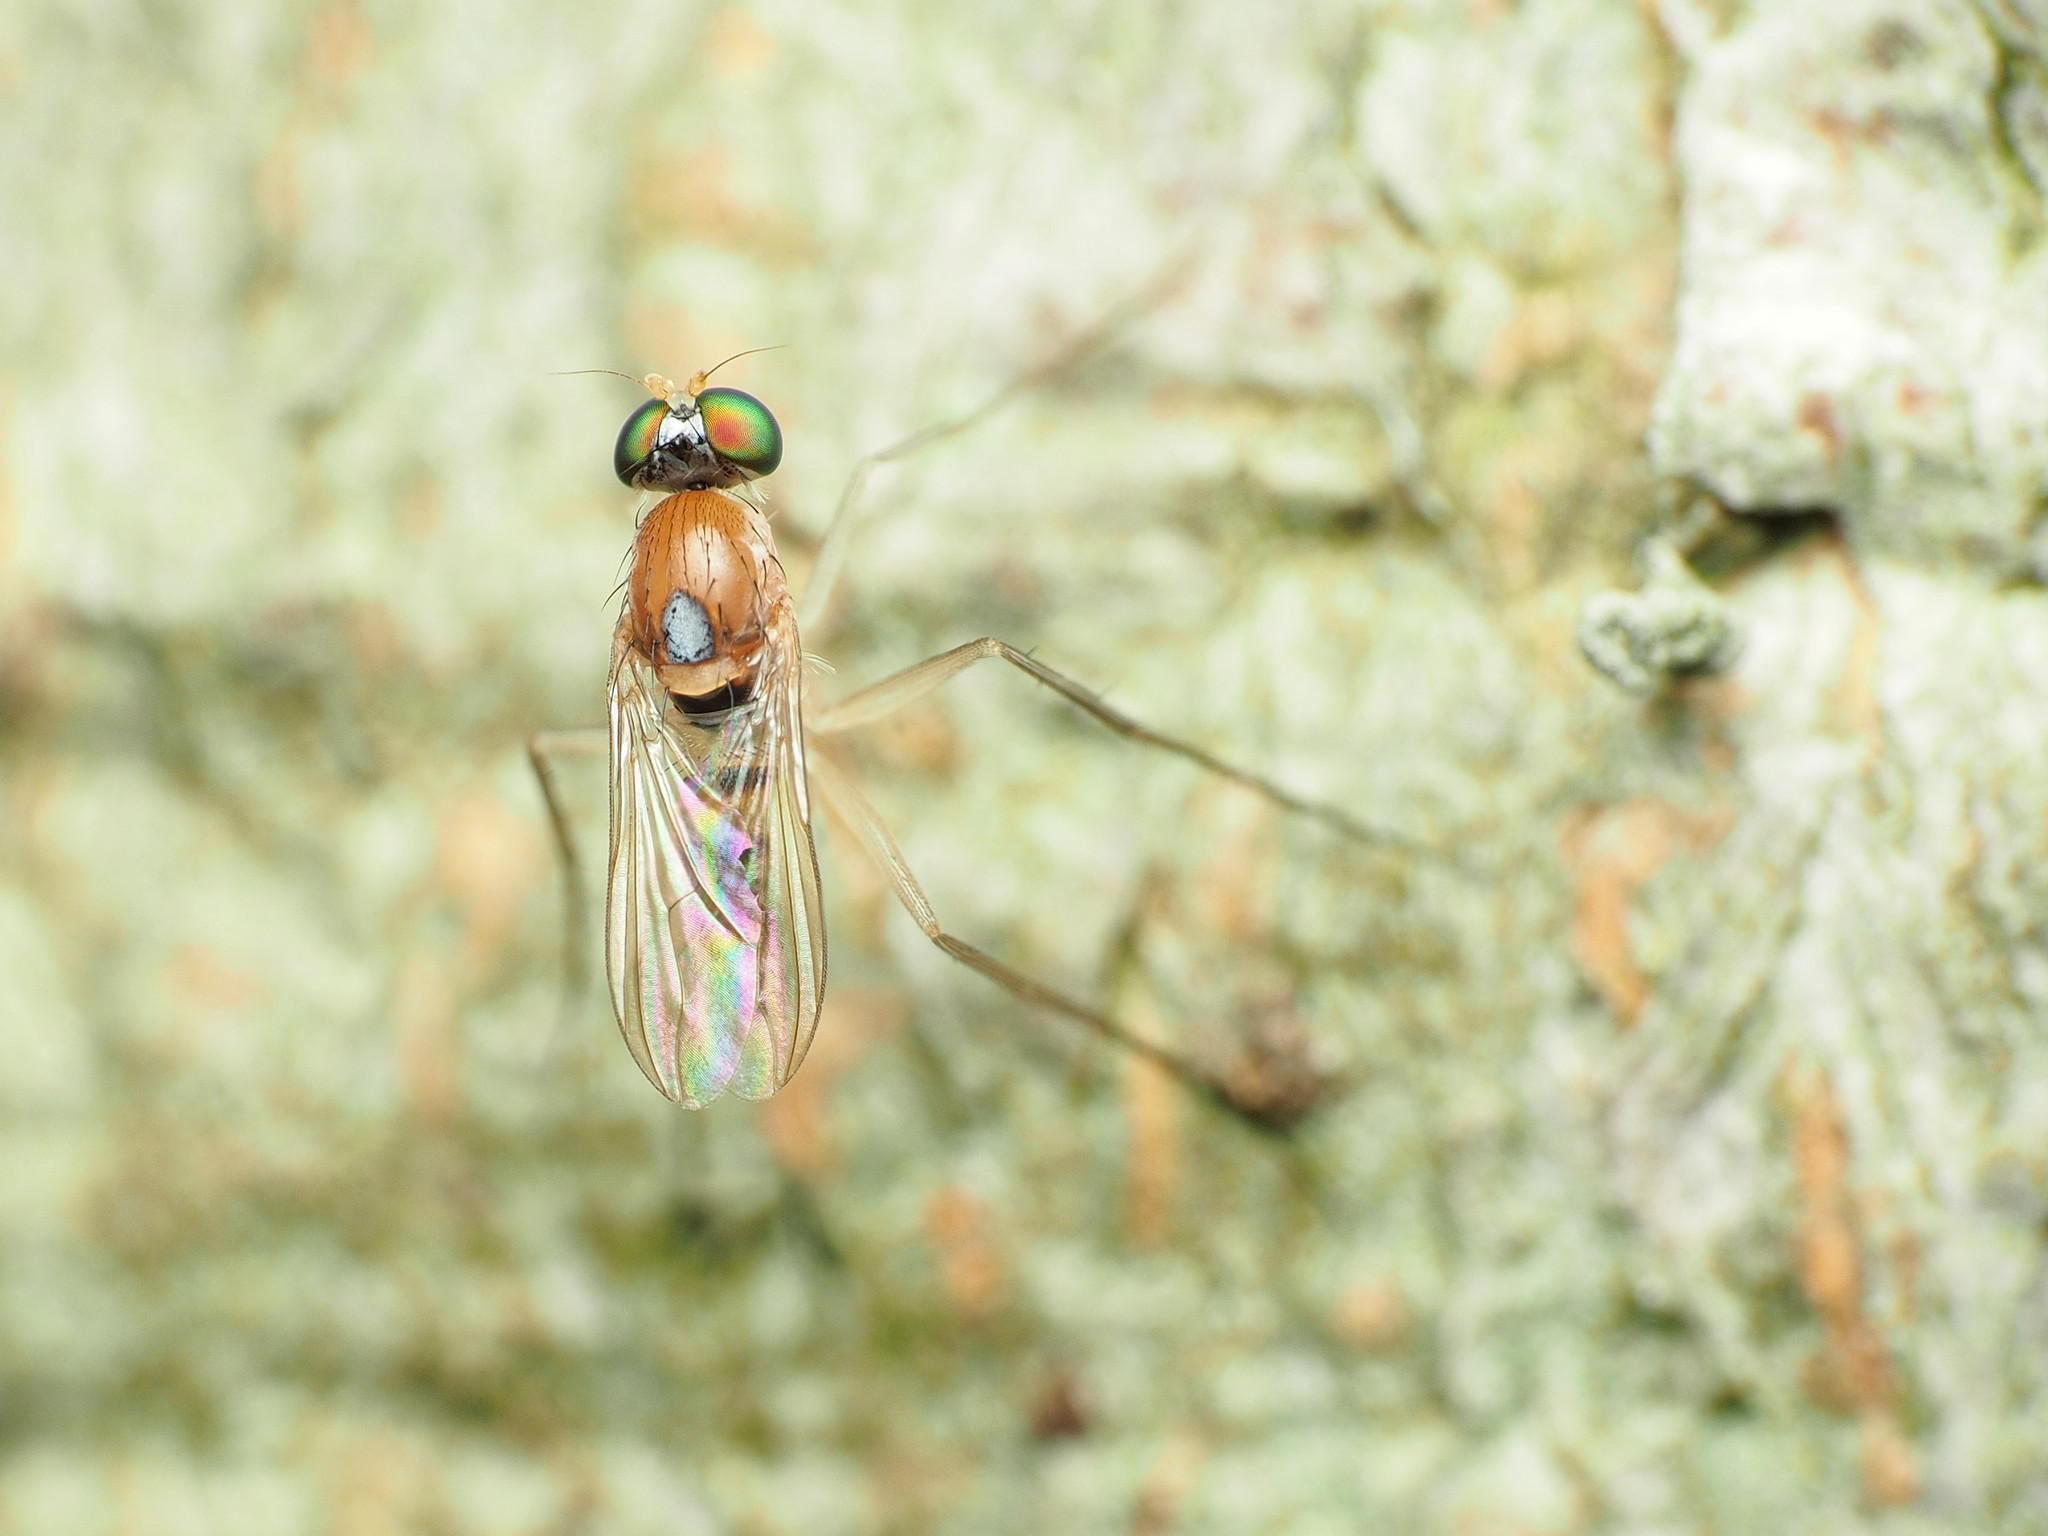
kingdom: Animalia
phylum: Arthropoda
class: Insecta
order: Diptera
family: Dolichopodidae
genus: Neurigona
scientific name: Neurigona rubella
